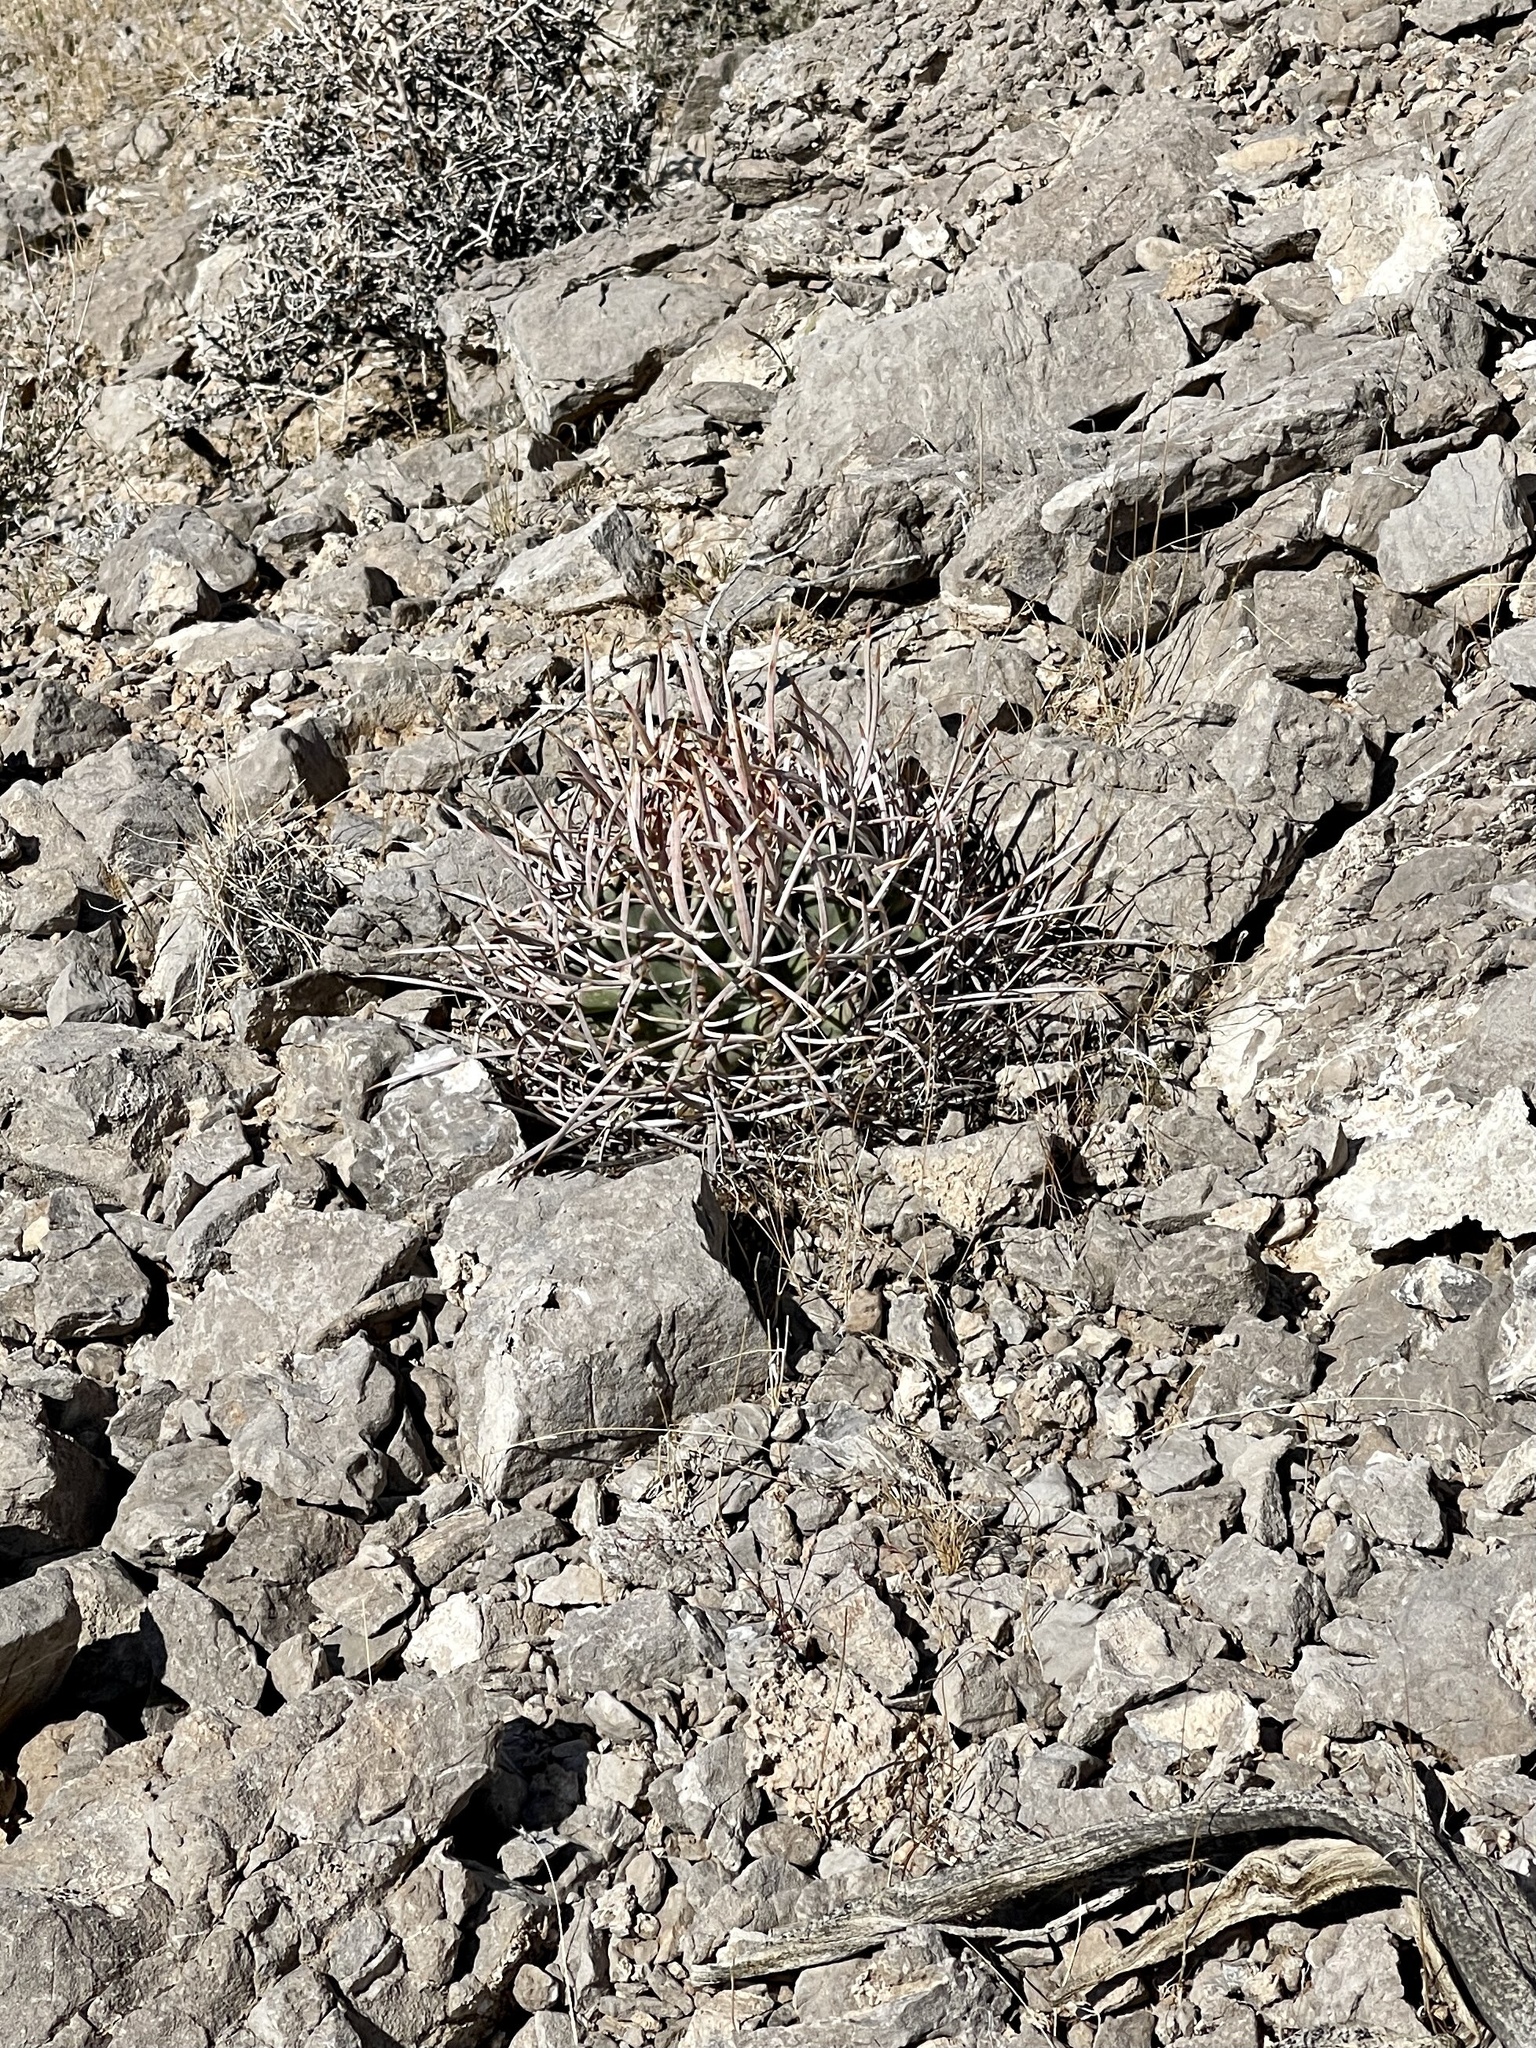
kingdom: Plantae
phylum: Tracheophyta
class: Magnoliopsida
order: Caryophyllales
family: Cactaceae
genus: Echinocactus
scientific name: Echinocactus polycephalus
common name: Cottontop cactus
